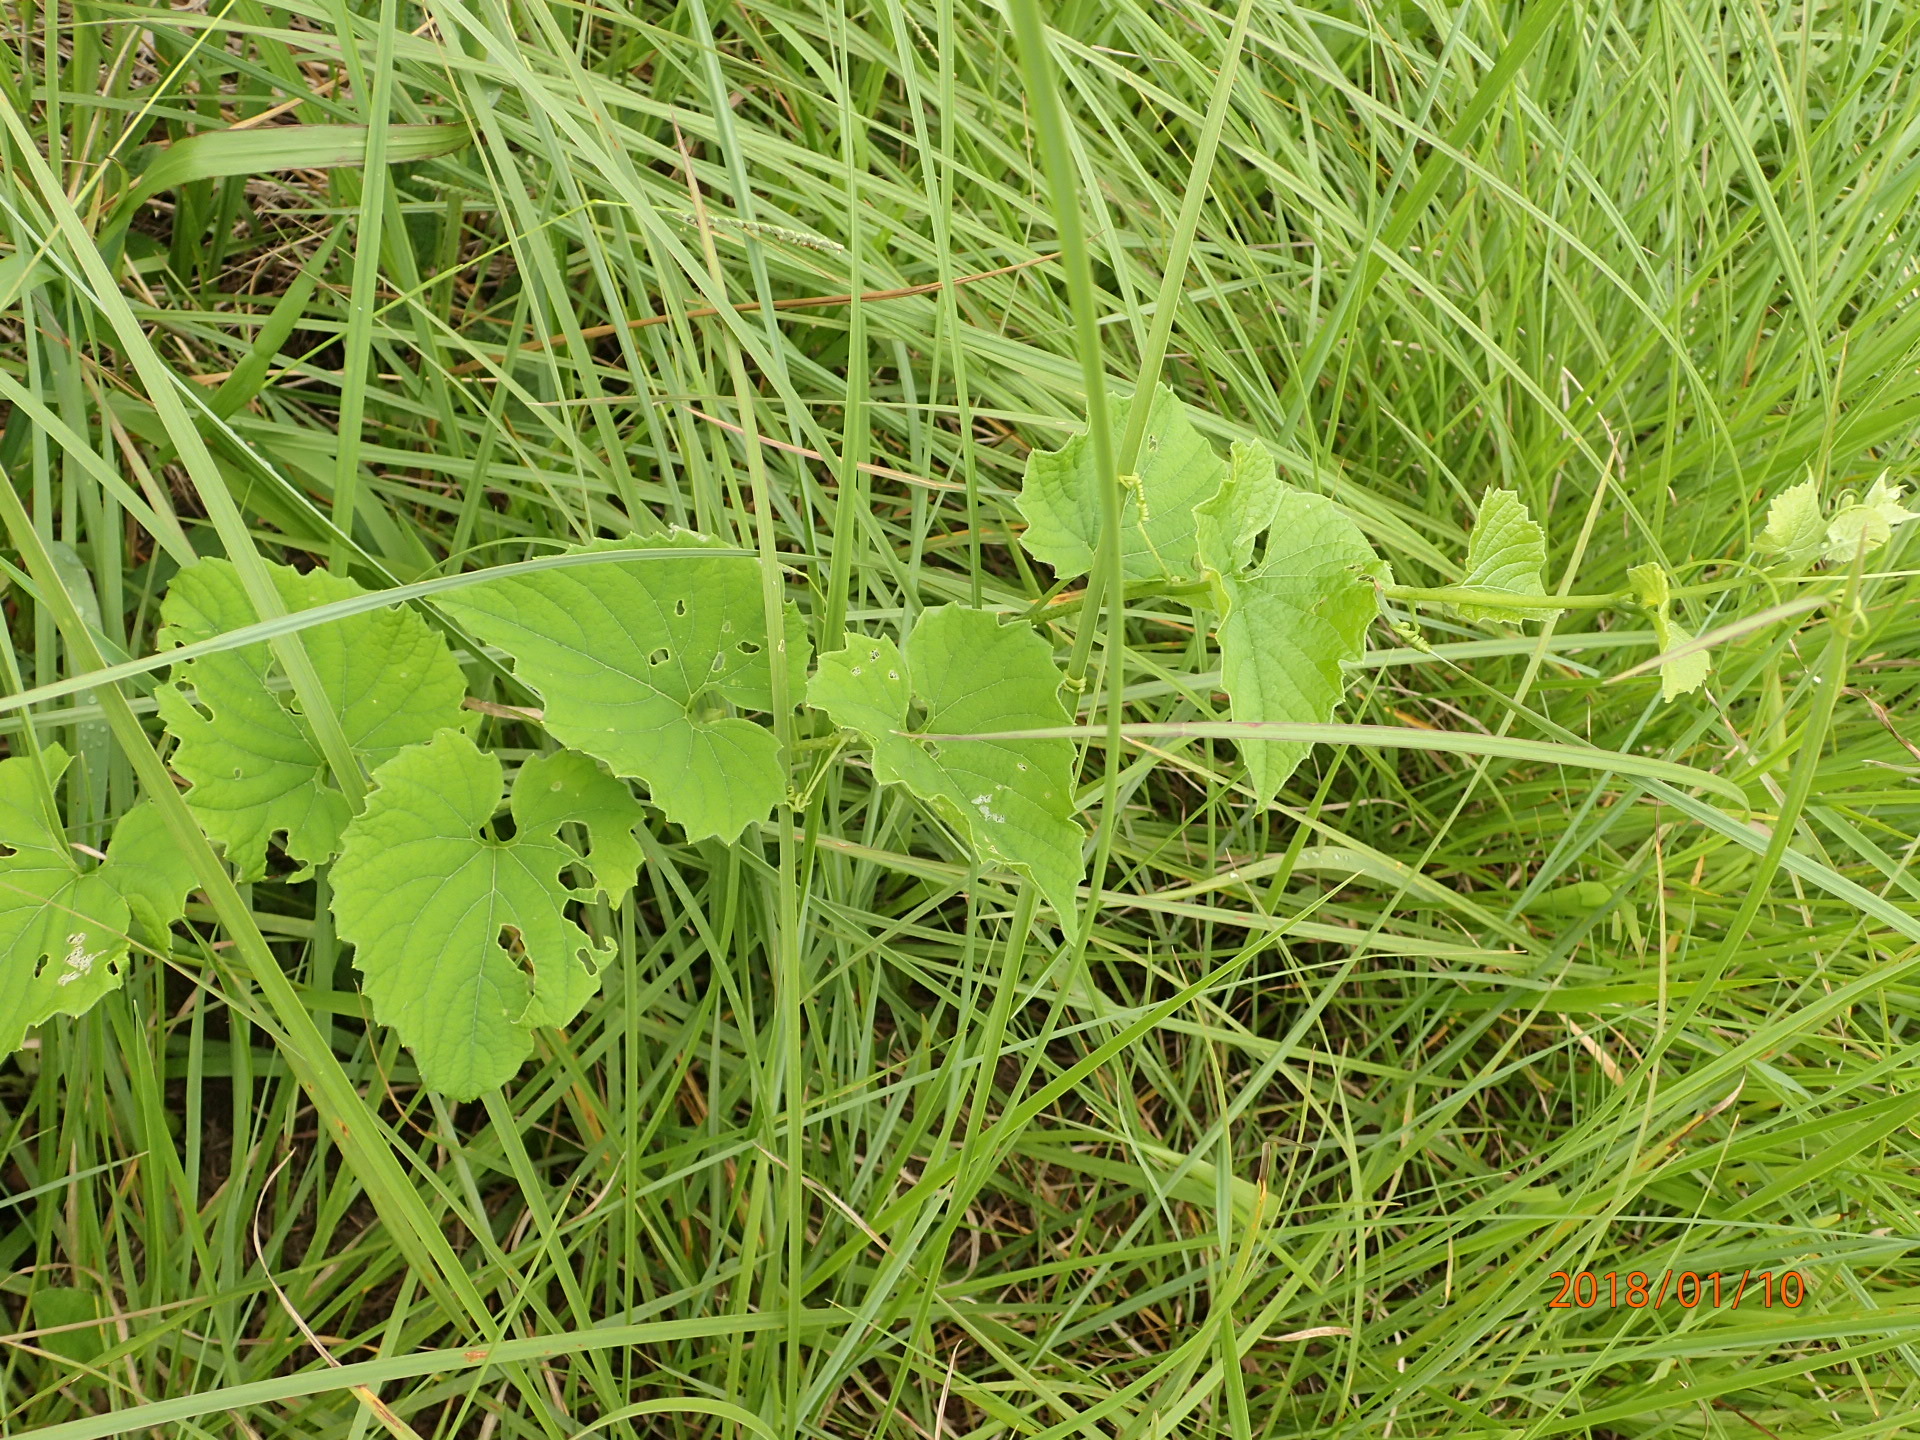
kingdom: Plantae
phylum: Tracheophyta
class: Magnoliopsida
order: Cucurbitales
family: Cucurbitaceae
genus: Momordica
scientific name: Momordica foetida
